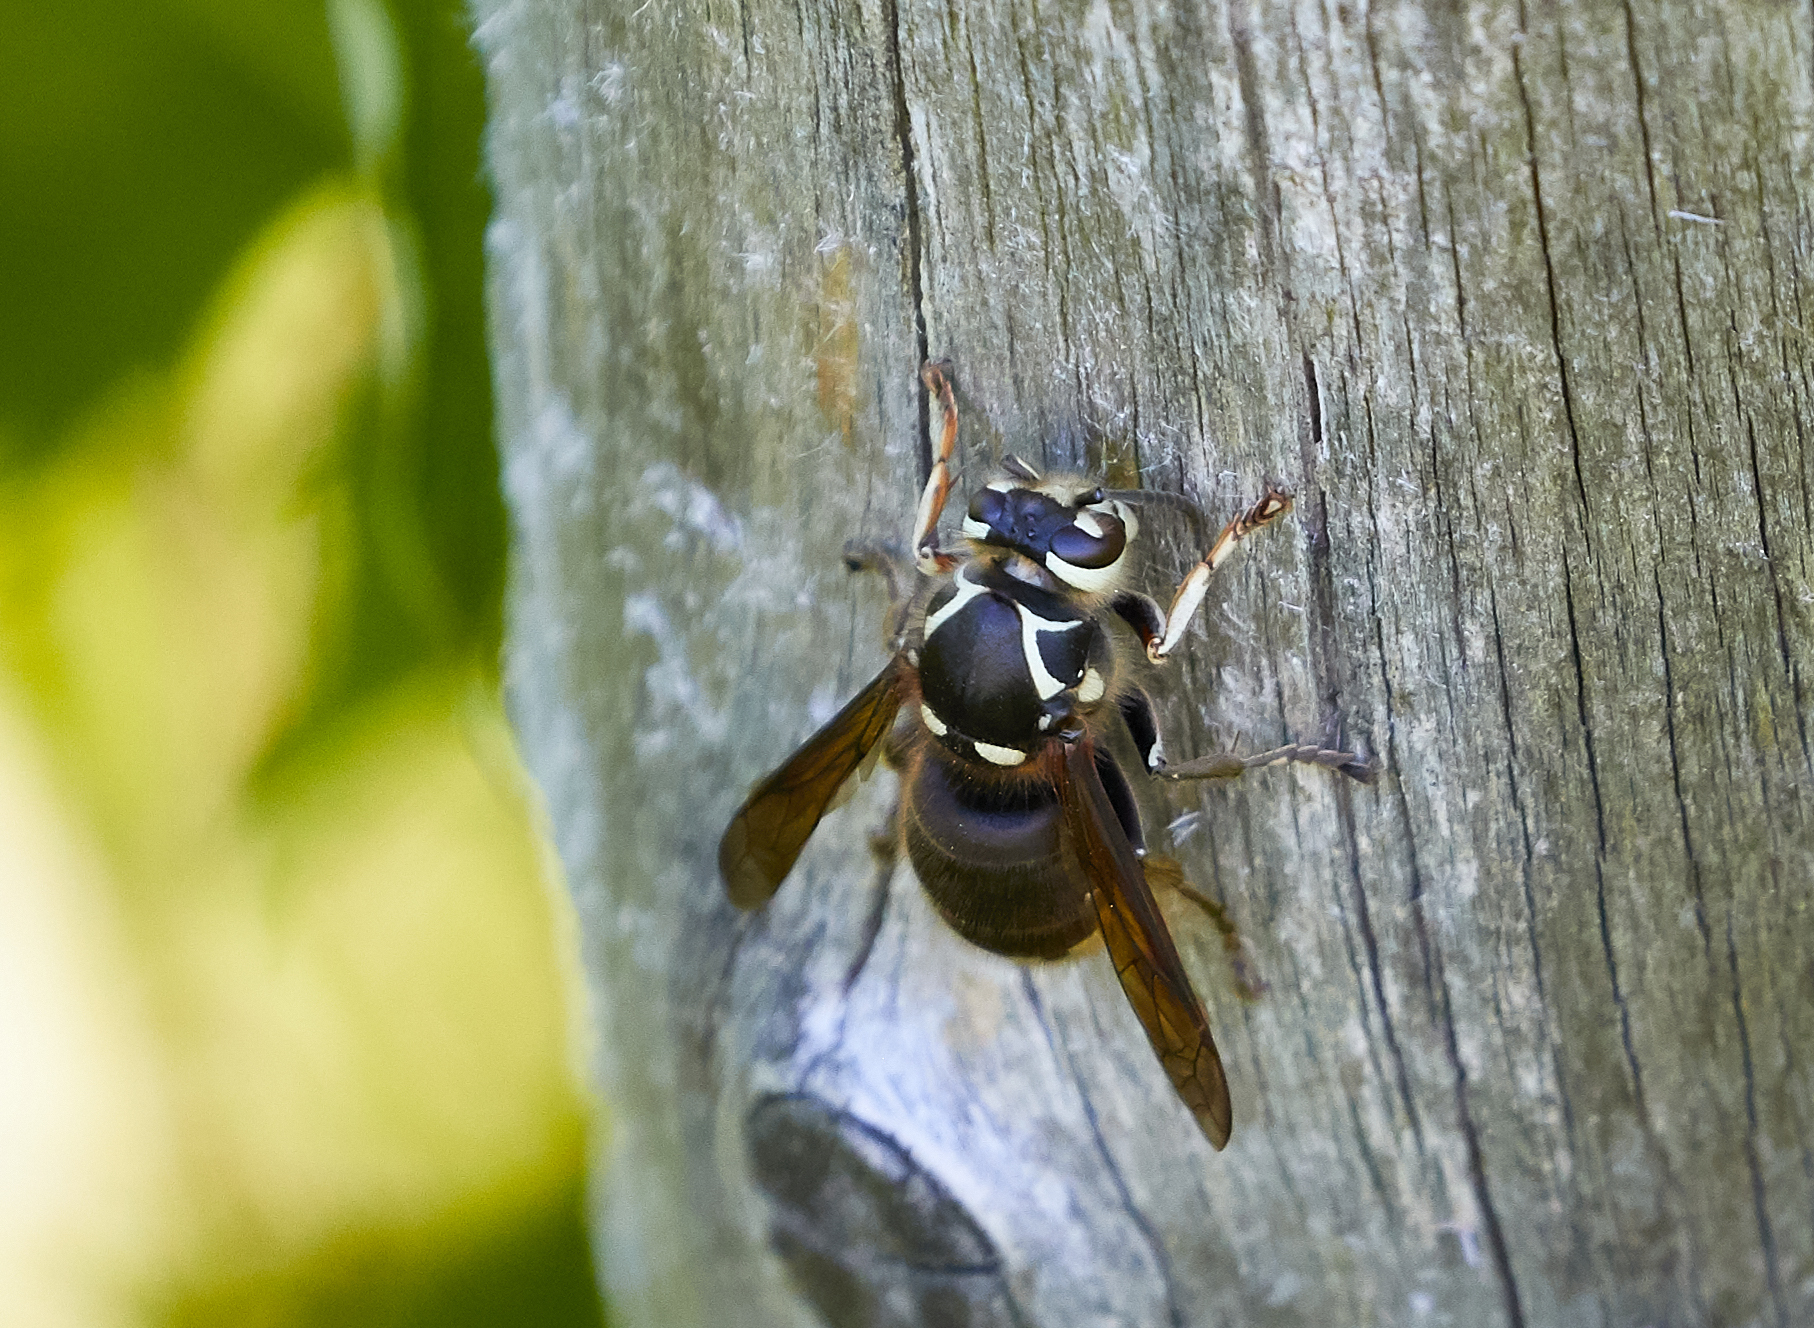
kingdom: Animalia
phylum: Arthropoda
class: Insecta
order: Hymenoptera
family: Vespidae
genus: Dolichovespula
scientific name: Dolichovespula maculata
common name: Bald-faced hornet
